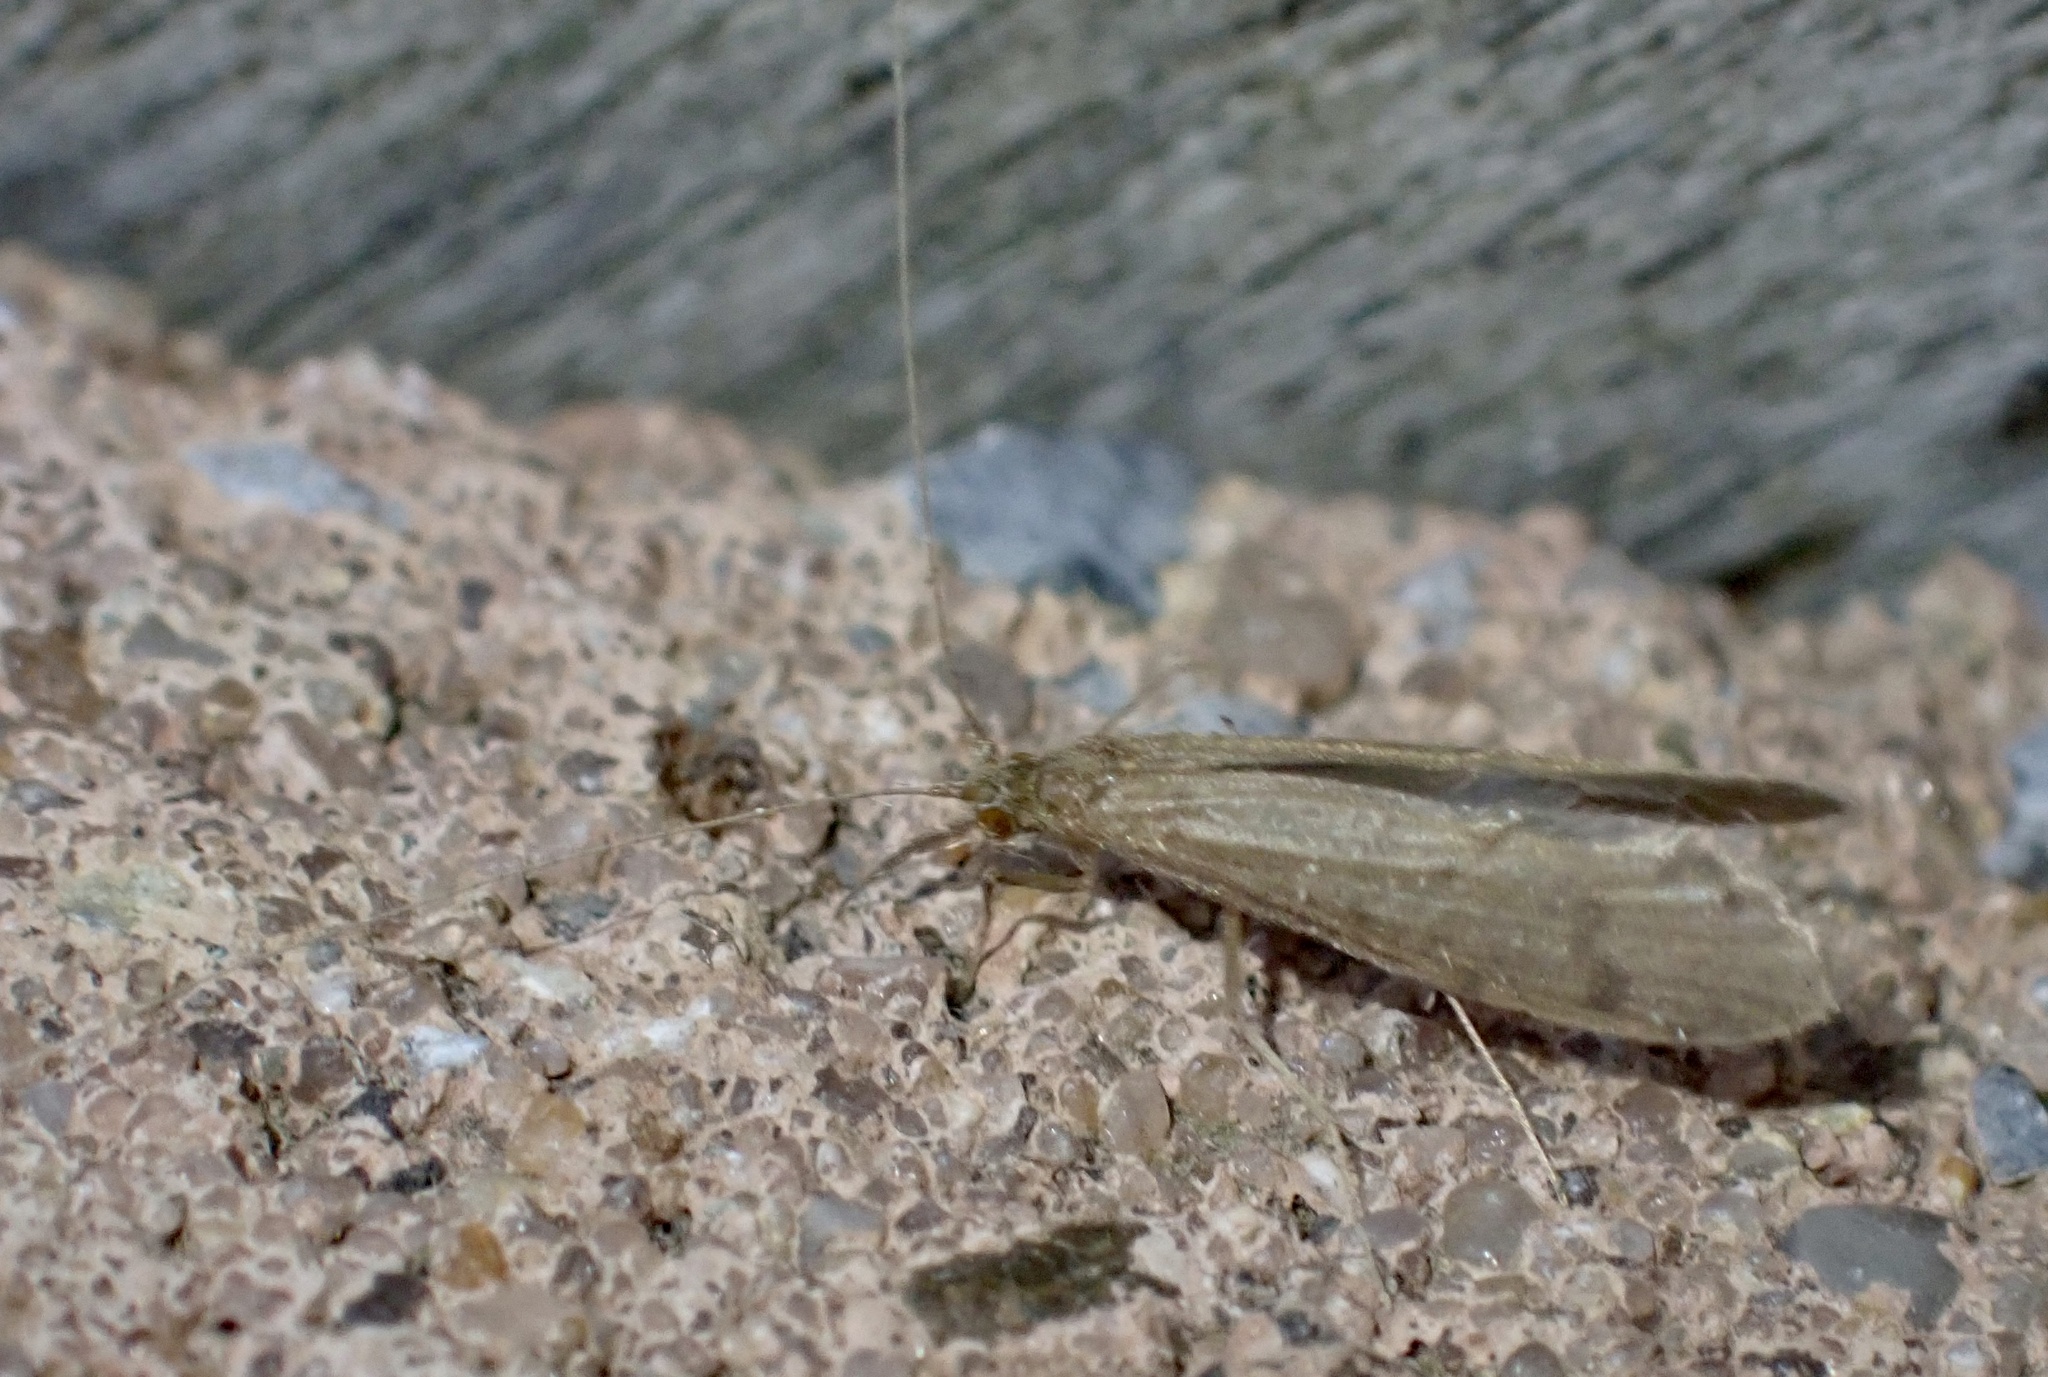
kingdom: Animalia
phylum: Arthropoda
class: Insecta
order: Trichoptera
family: Leptoceridae
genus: Oecetis
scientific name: Oecetis ochracea
